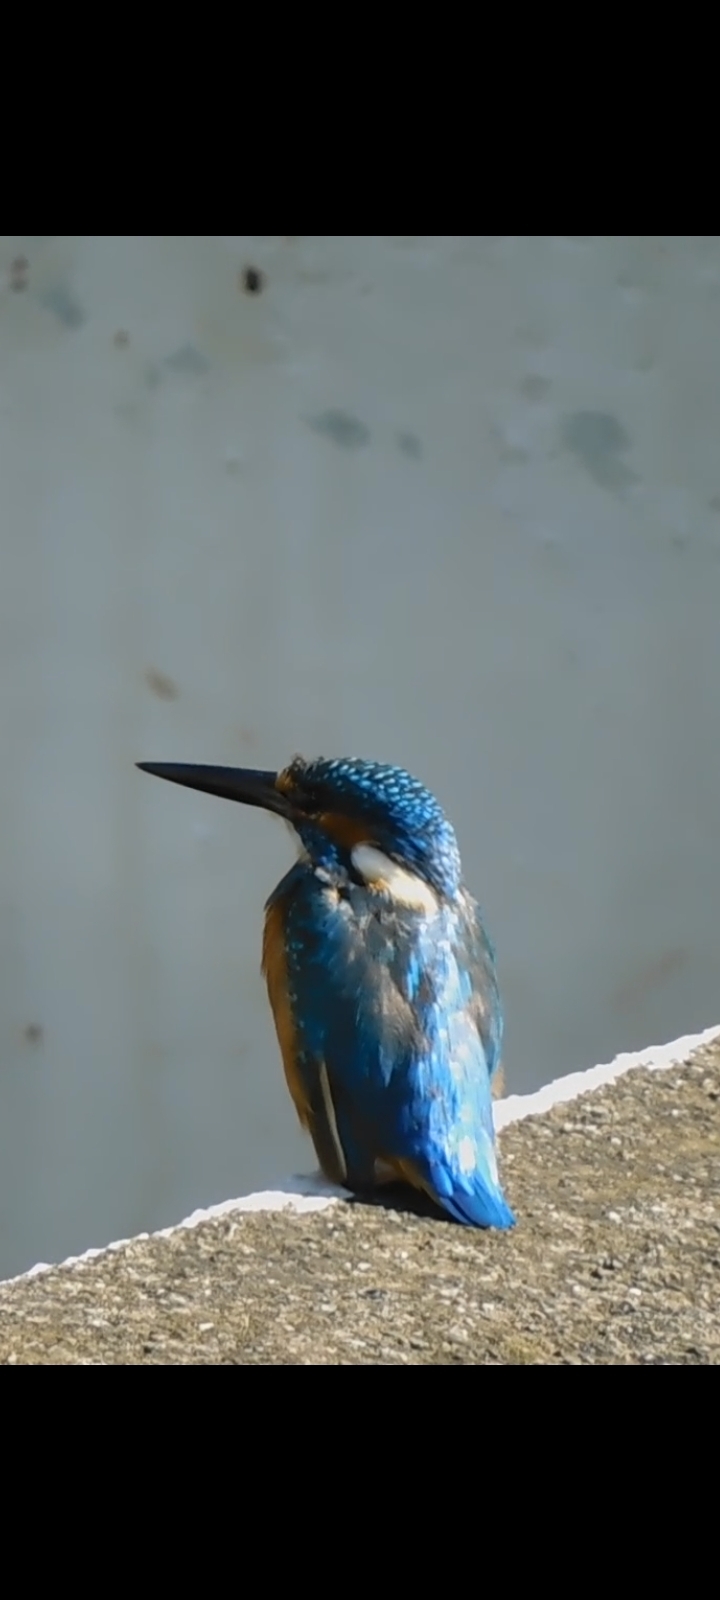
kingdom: Animalia
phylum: Chordata
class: Aves
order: Coraciiformes
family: Alcedinidae
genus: Alcedo
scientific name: Alcedo atthis
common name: Common kingfisher
